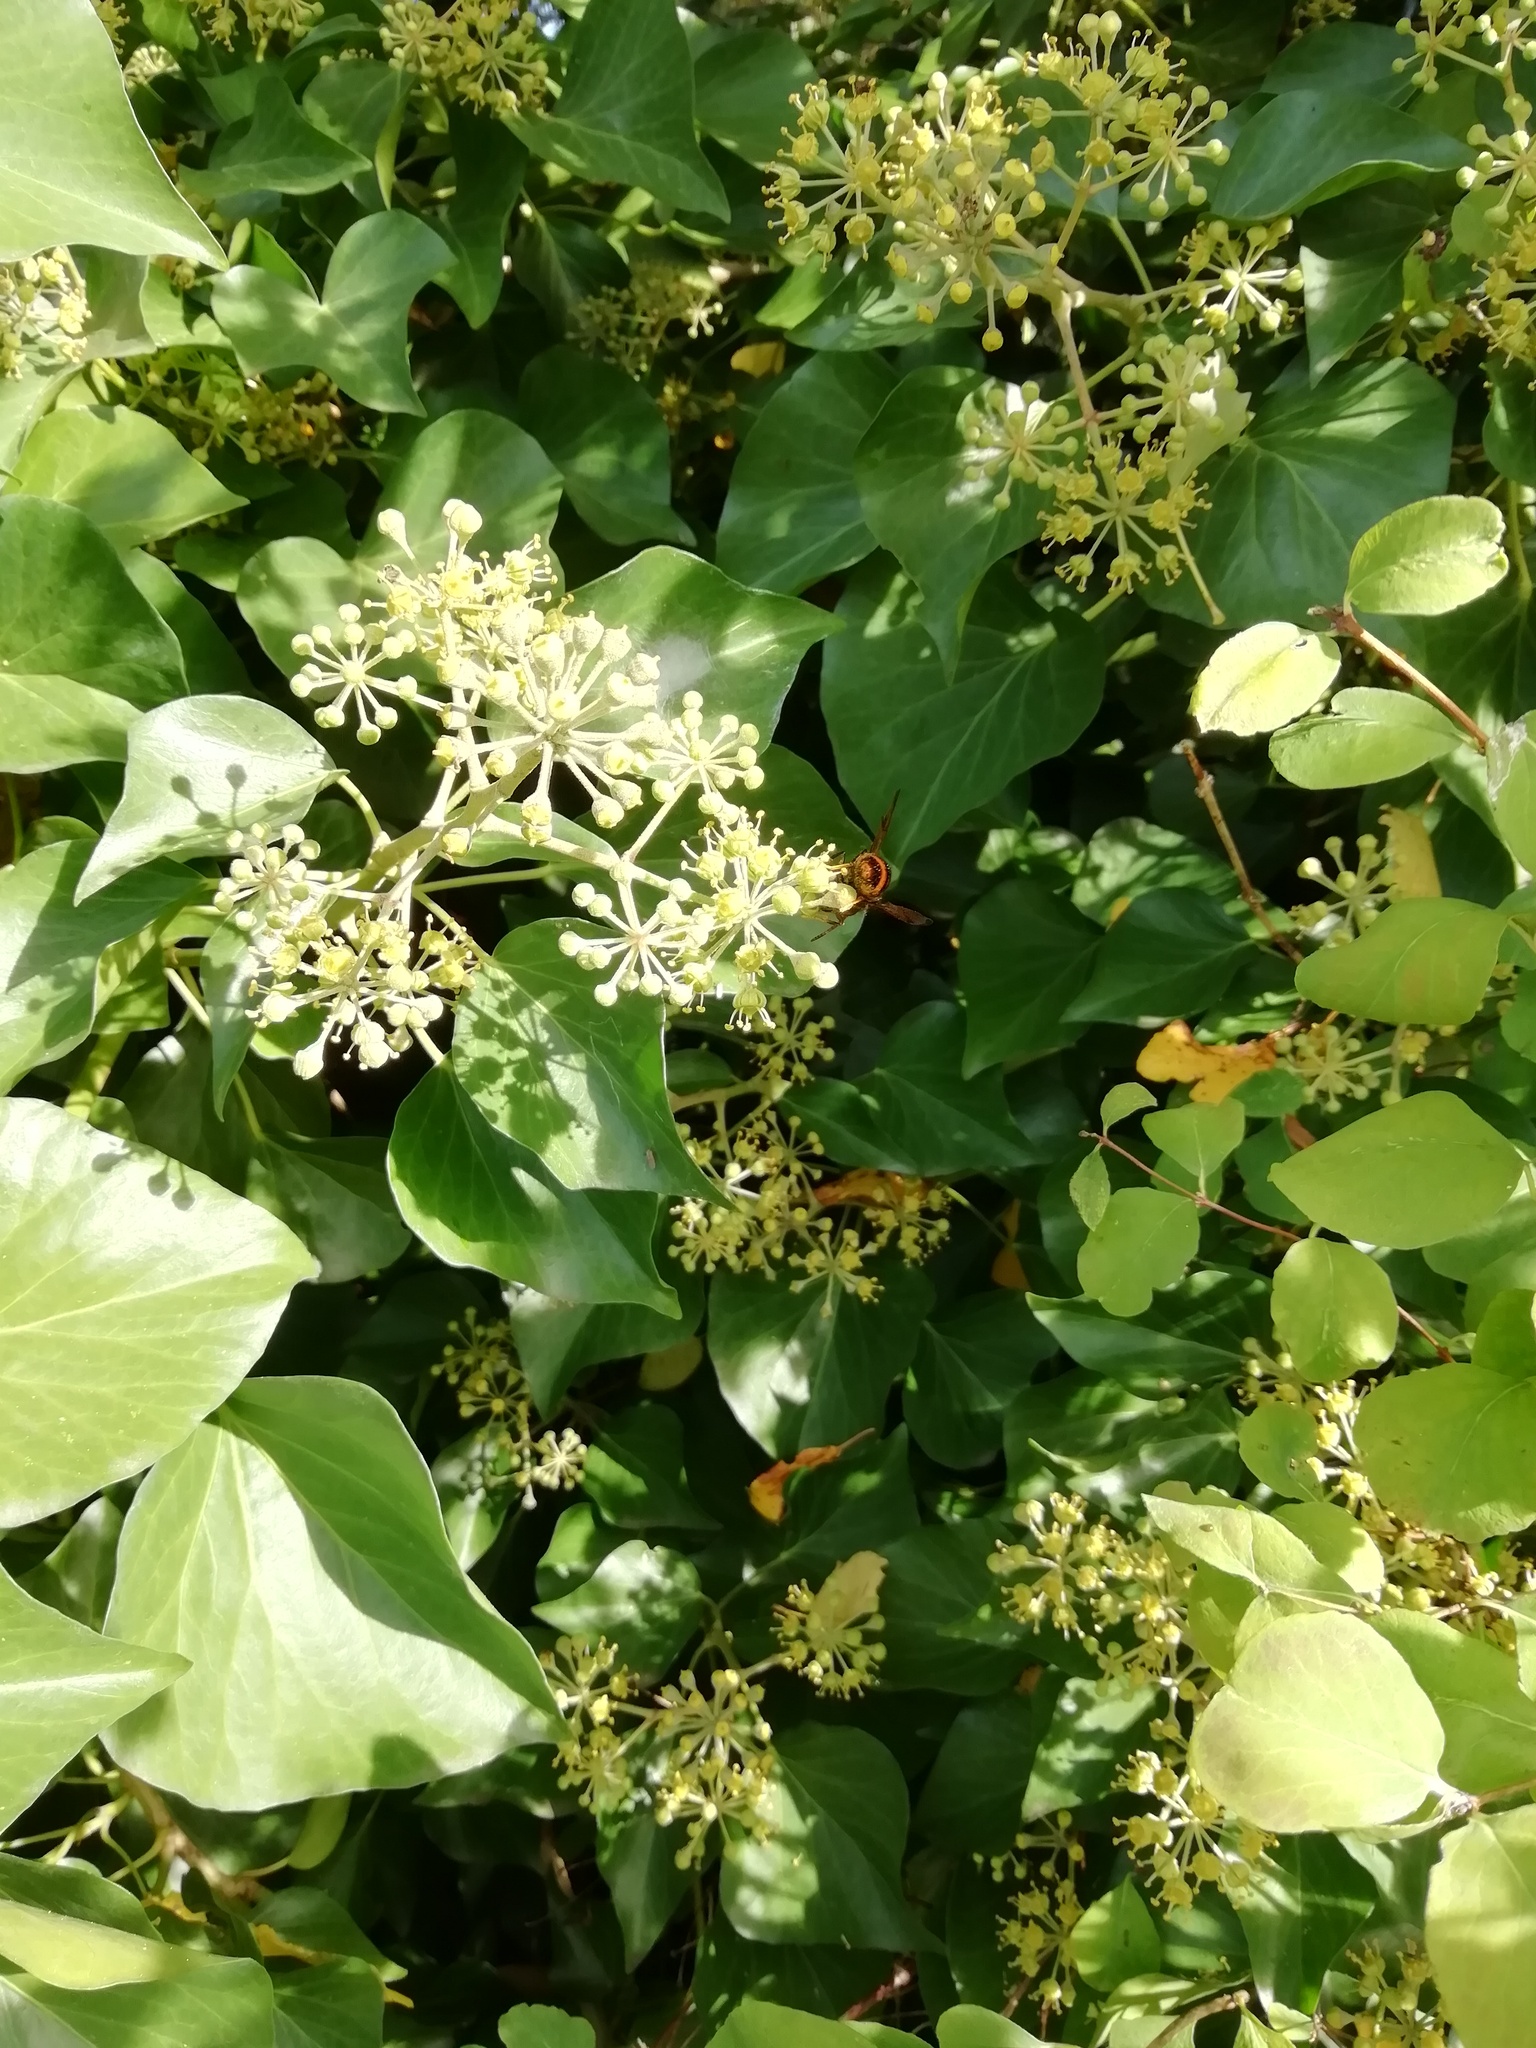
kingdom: Animalia
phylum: Arthropoda
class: Insecta
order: Hymenoptera
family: Vespidae
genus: Vespa
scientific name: Vespa velutina
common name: Asian hornet
